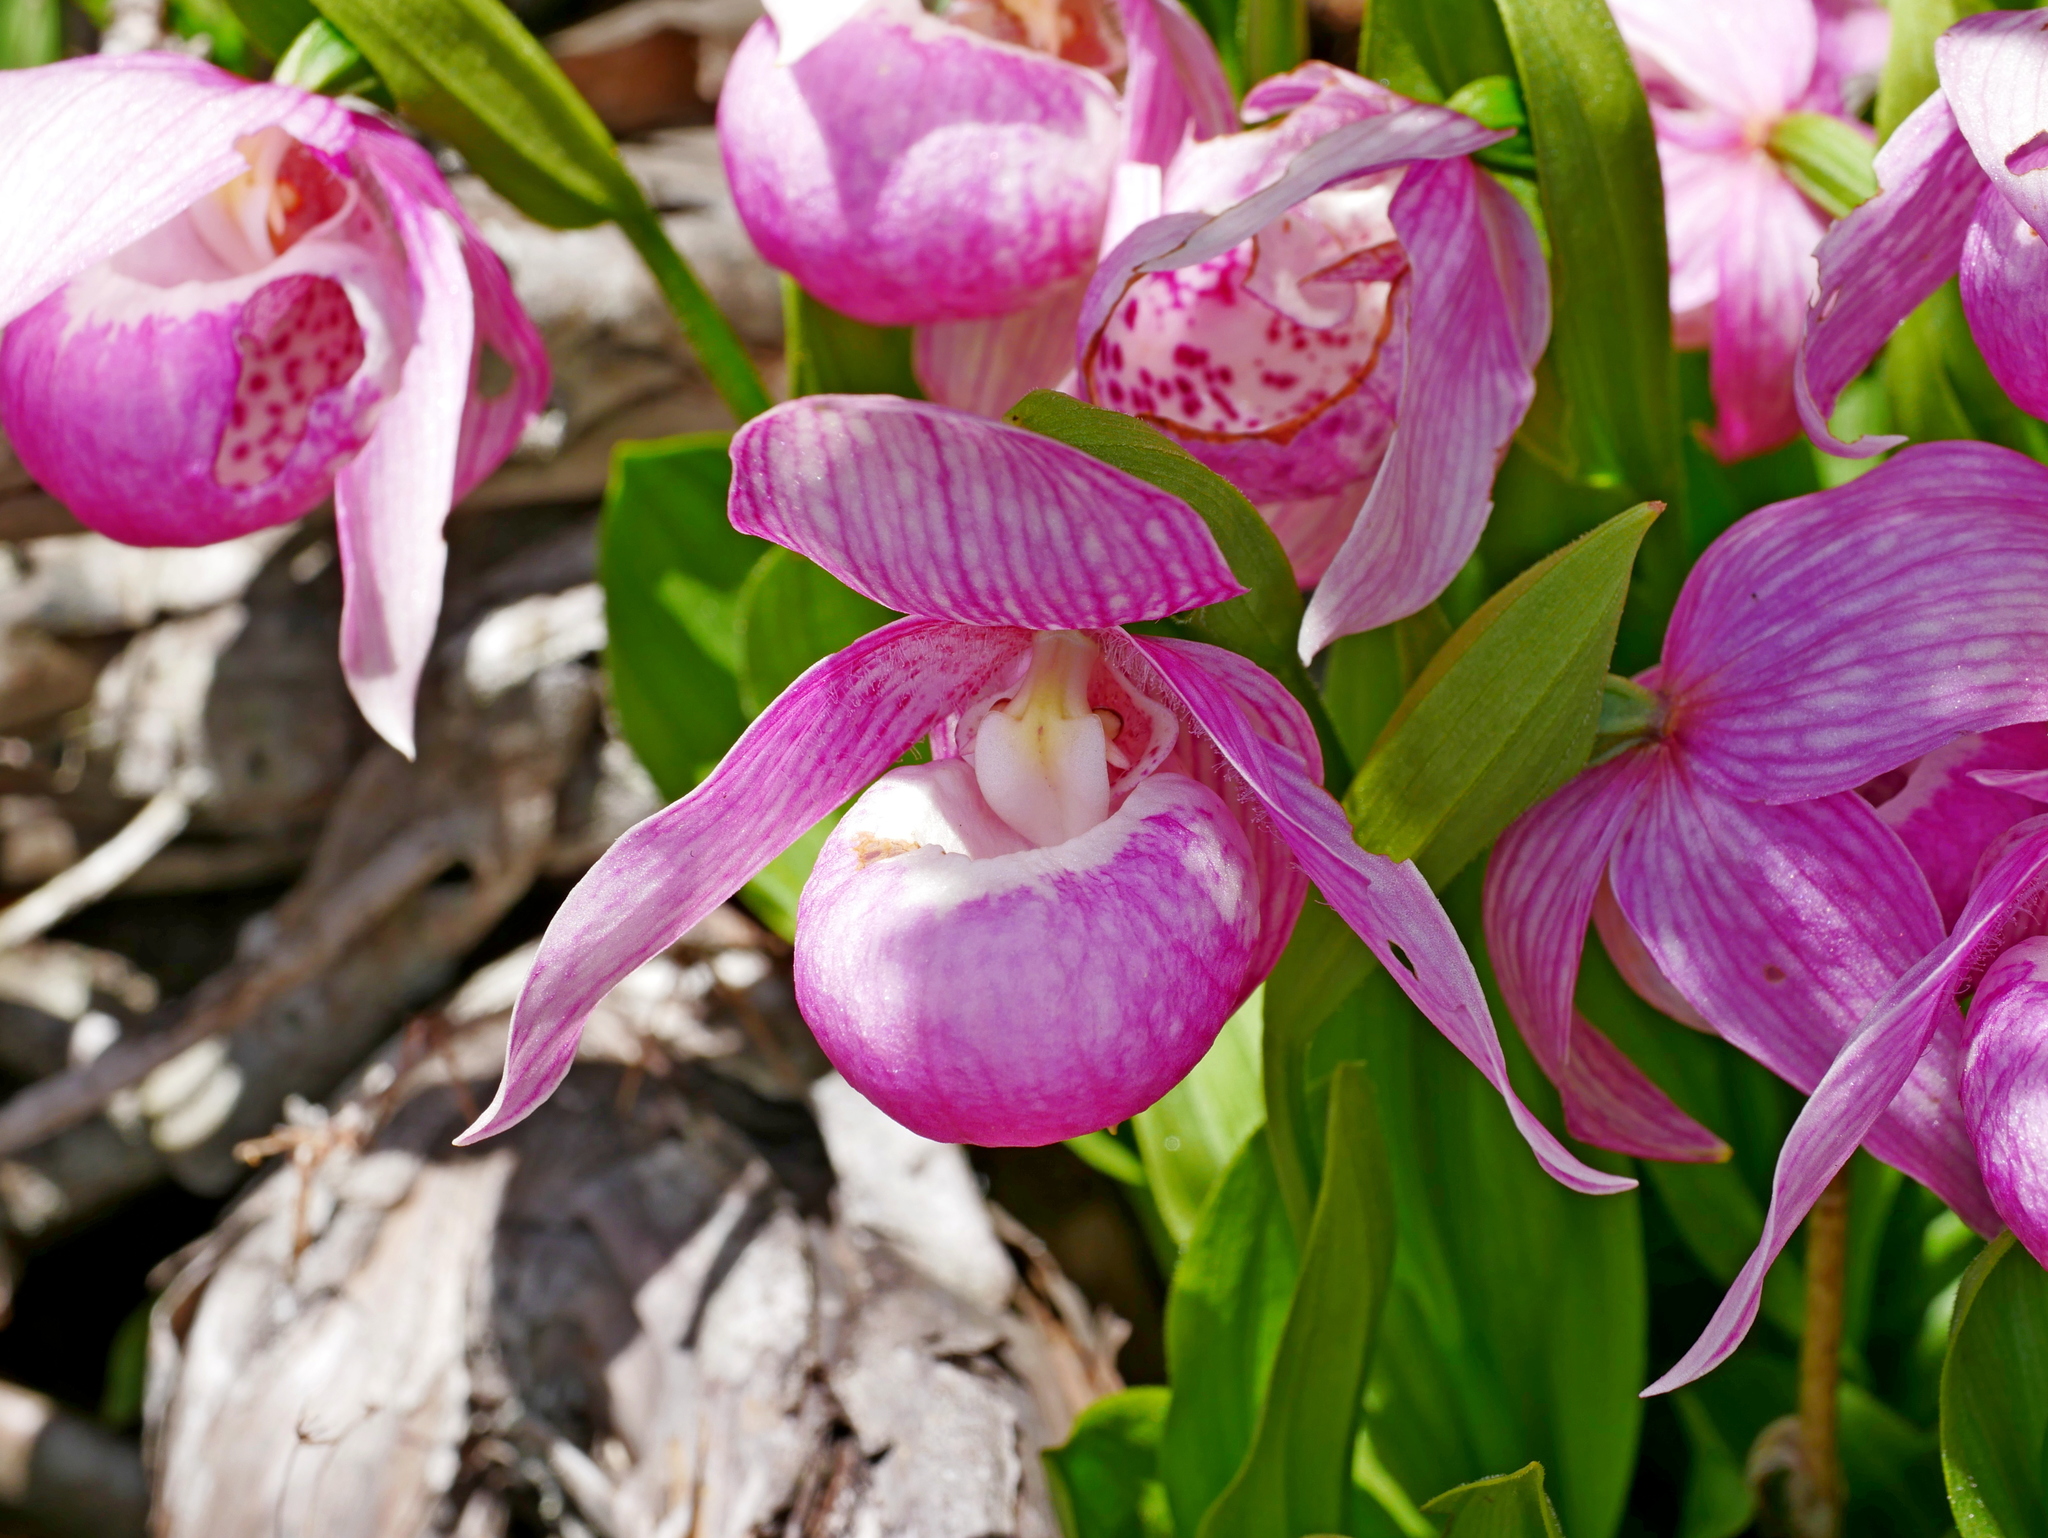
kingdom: Plantae
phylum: Tracheophyta
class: Liliopsida
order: Asparagales
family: Orchidaceae
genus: Cypripedium
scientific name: Cypripedium taiwanalpinum
